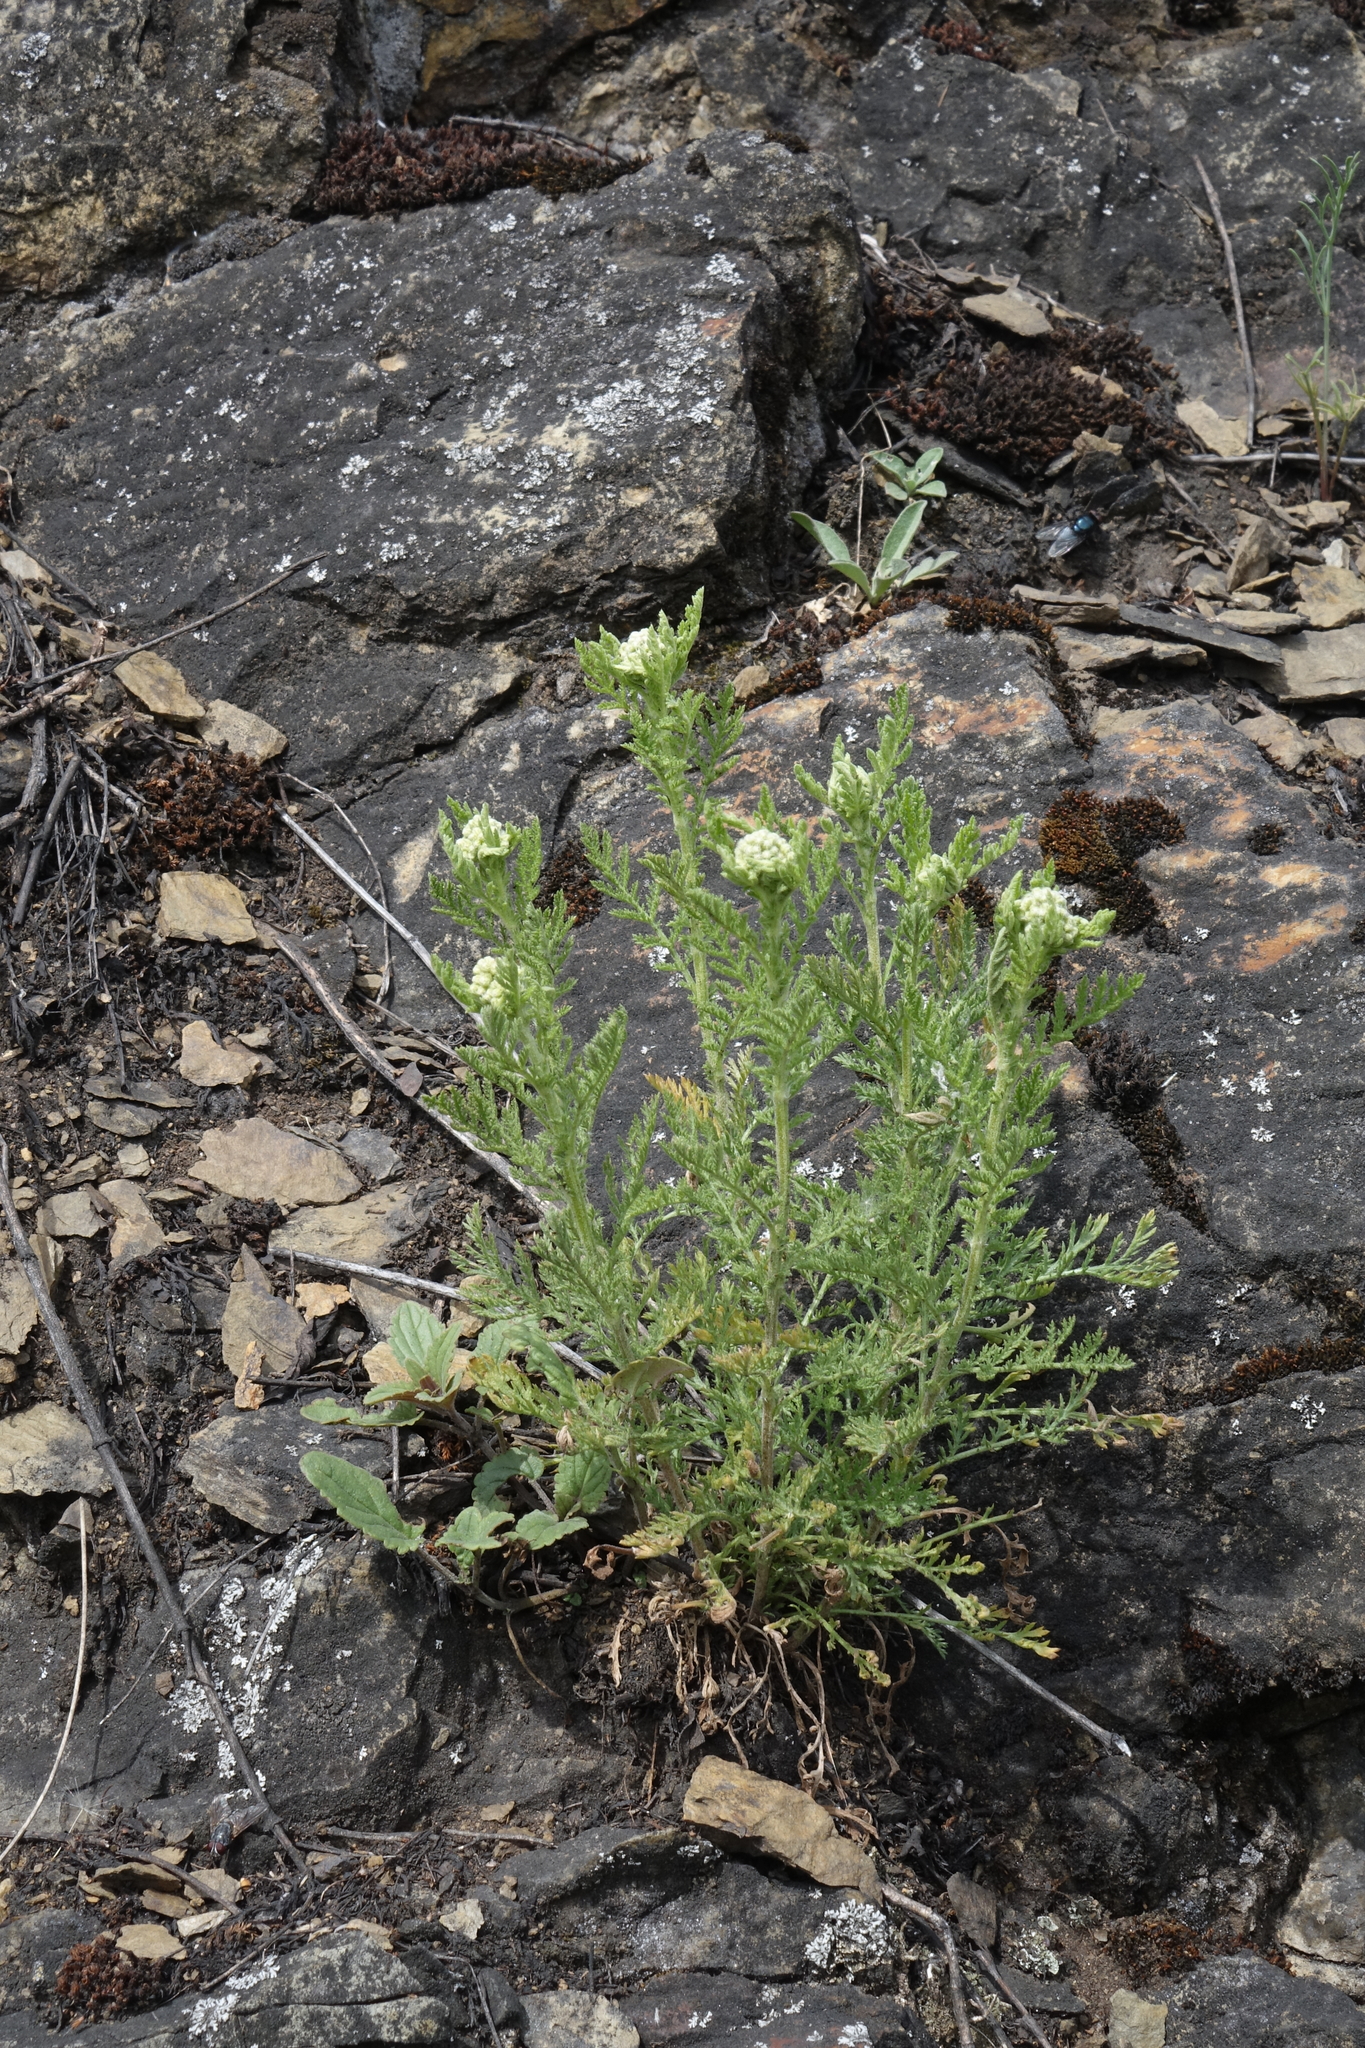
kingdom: Plantae
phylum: Tracheophyta
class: Magnoliopsida
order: Asterales
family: Asteraceae
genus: Achillea
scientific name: Achillea nobilis
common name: Noble yarrow
